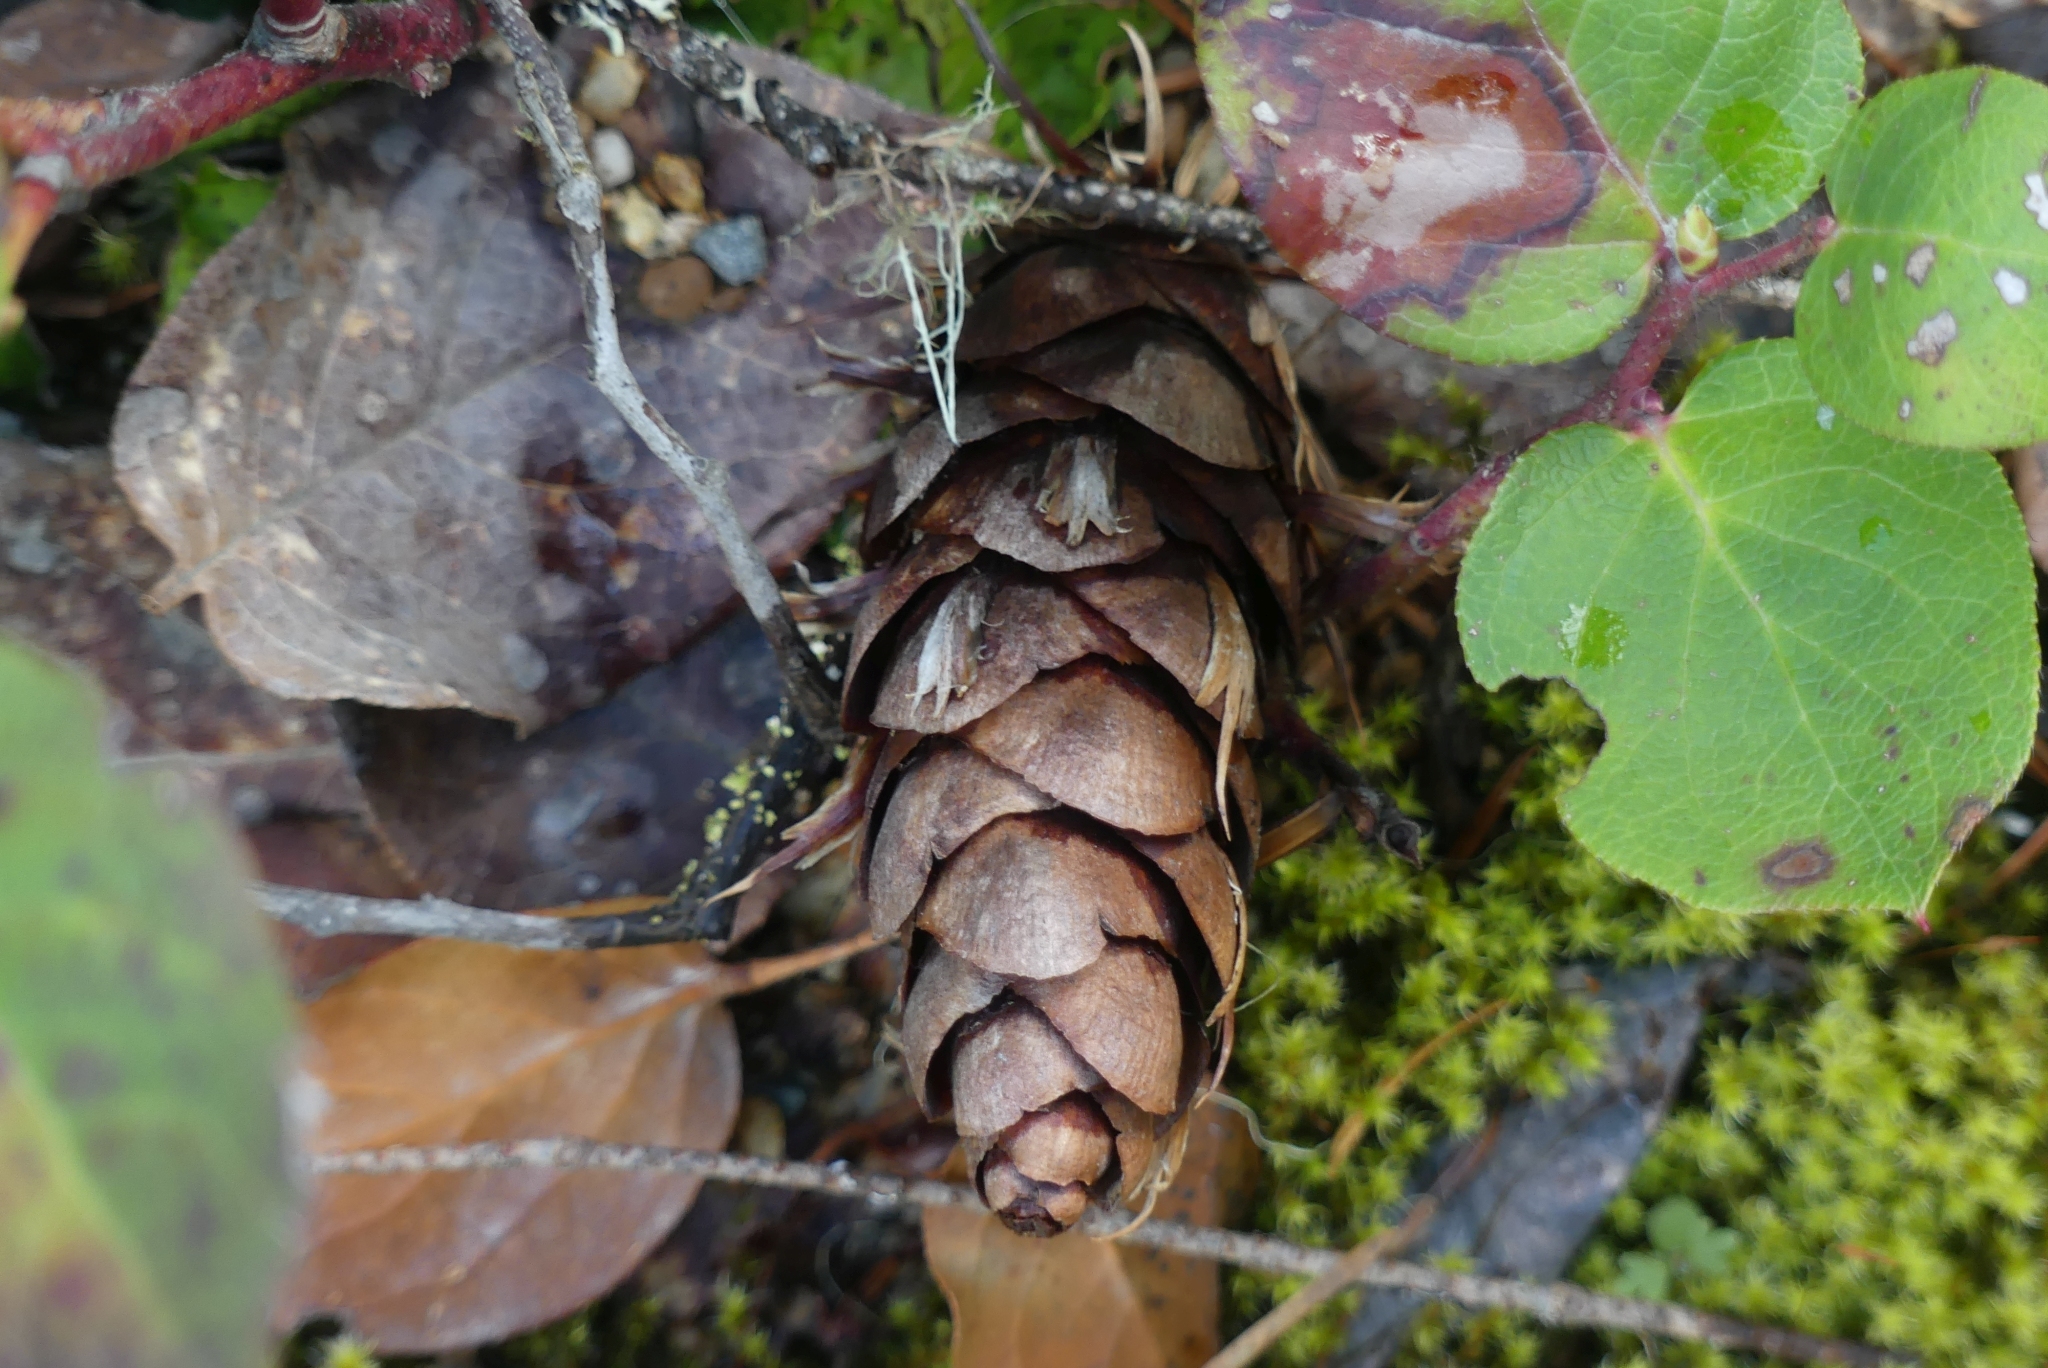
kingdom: Plantae
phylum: Tracheophyta
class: Pinopsida
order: Pinales
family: Pinaceae
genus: Pseudotsuga
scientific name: Pseudotsuga menziesii
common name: Douglas fir
